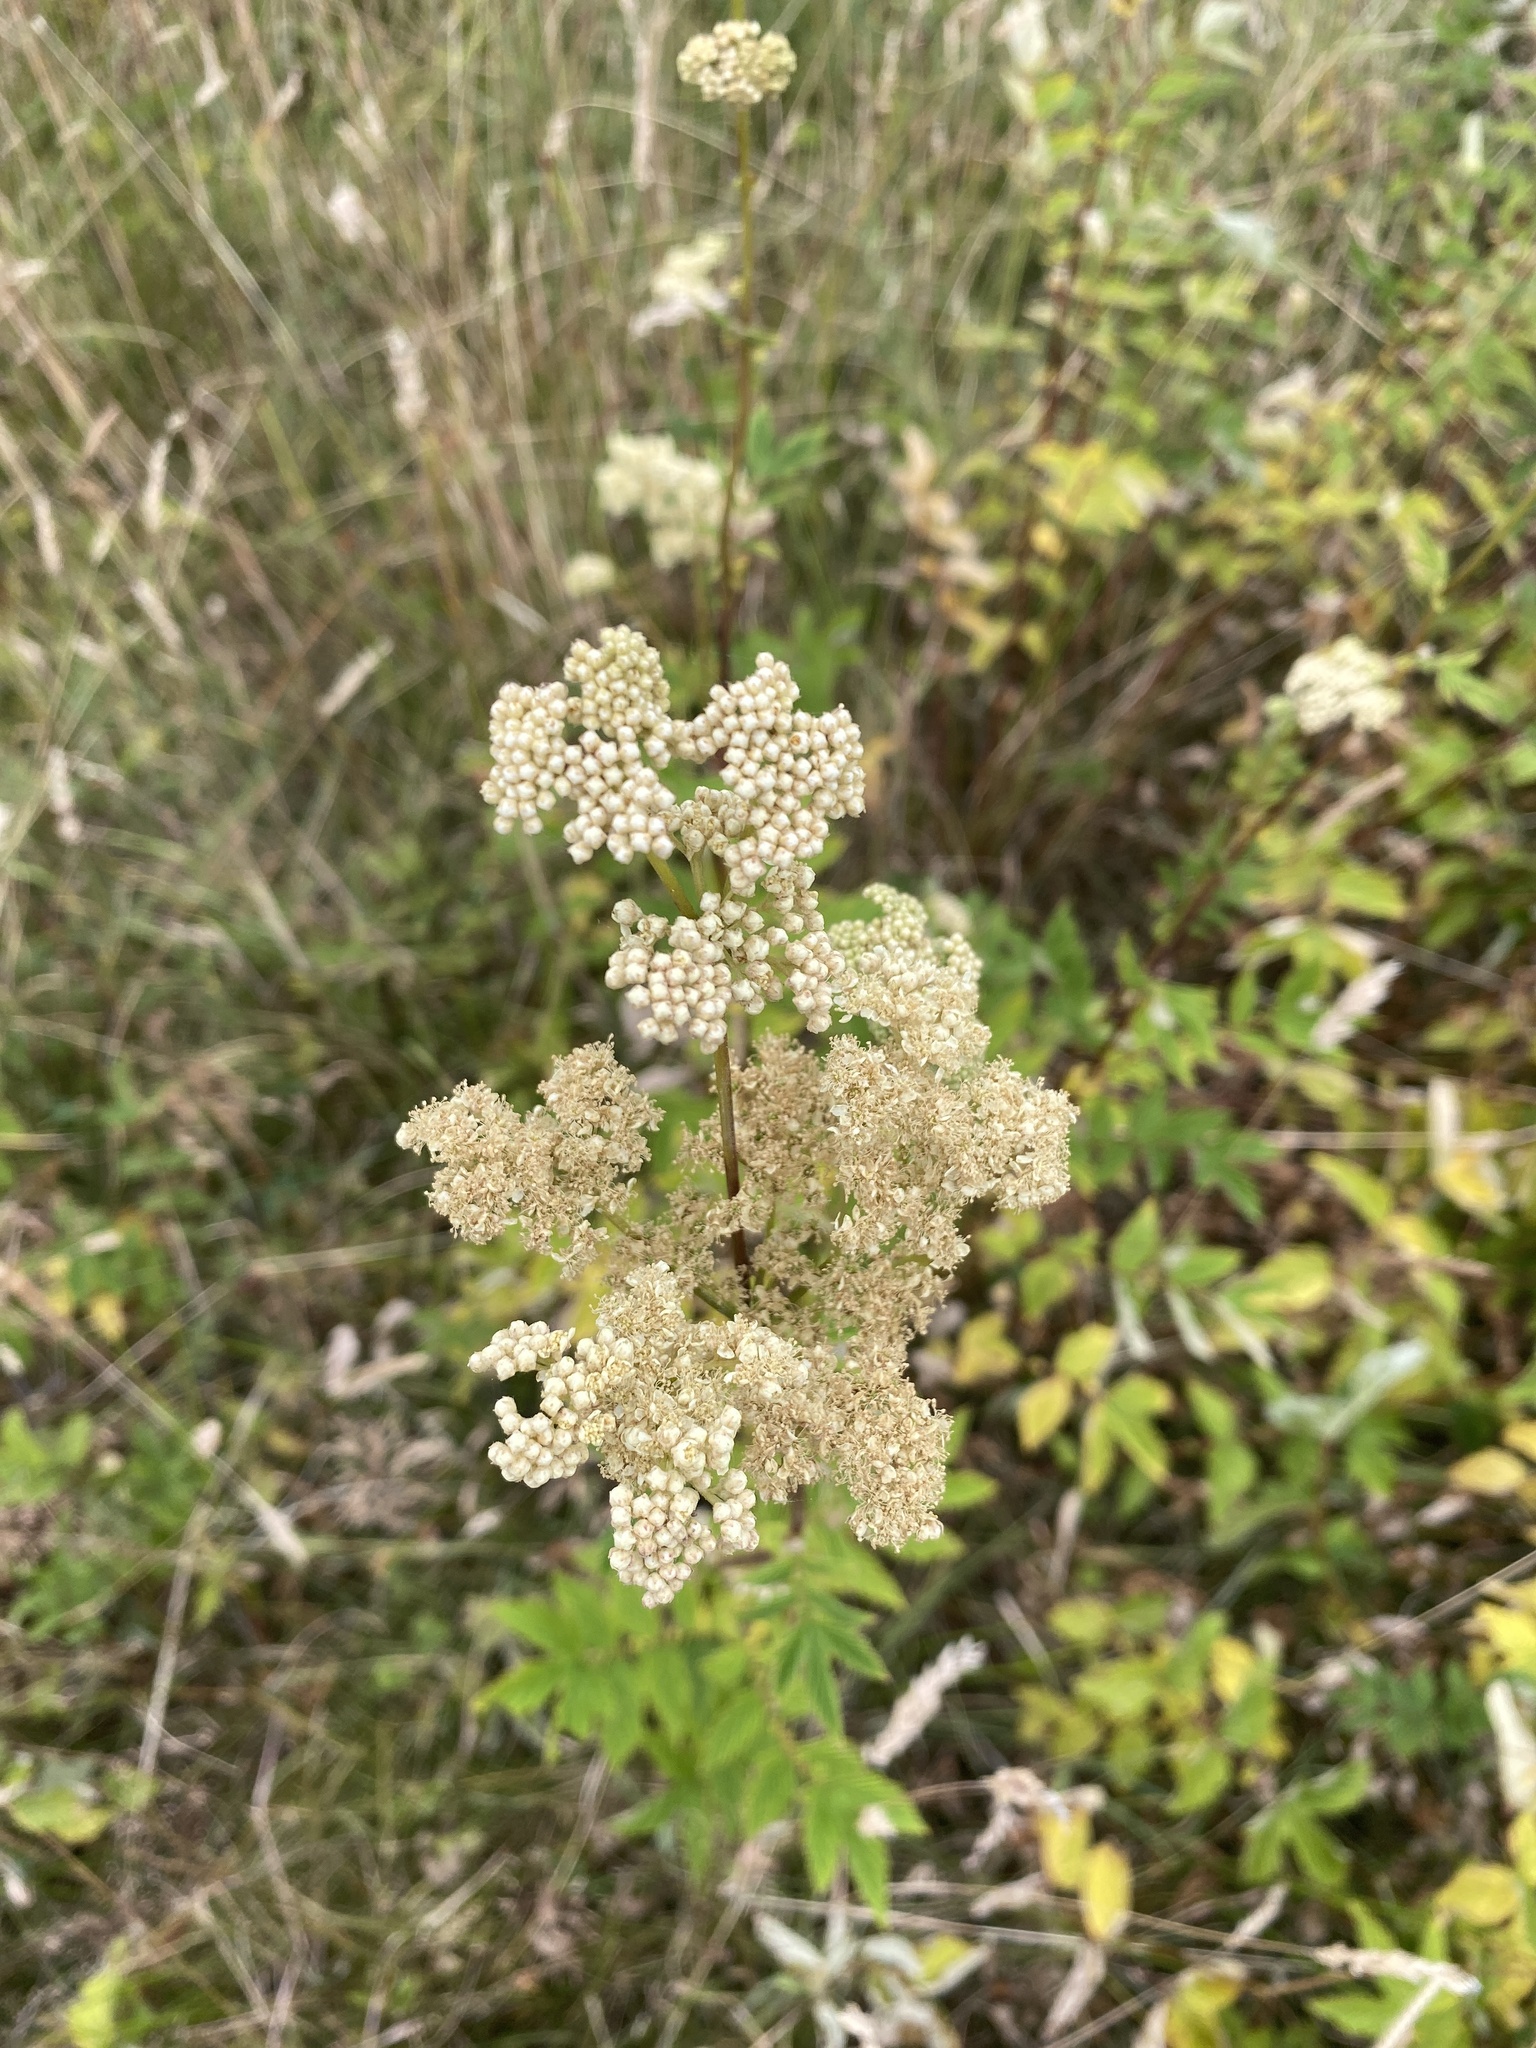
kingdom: Plantae
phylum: Tracheophyta
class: Magnoliopsida
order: Rosales
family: Rosaceae
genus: Filipendula
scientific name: Filipendula ulmaria
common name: Meadowsweet
